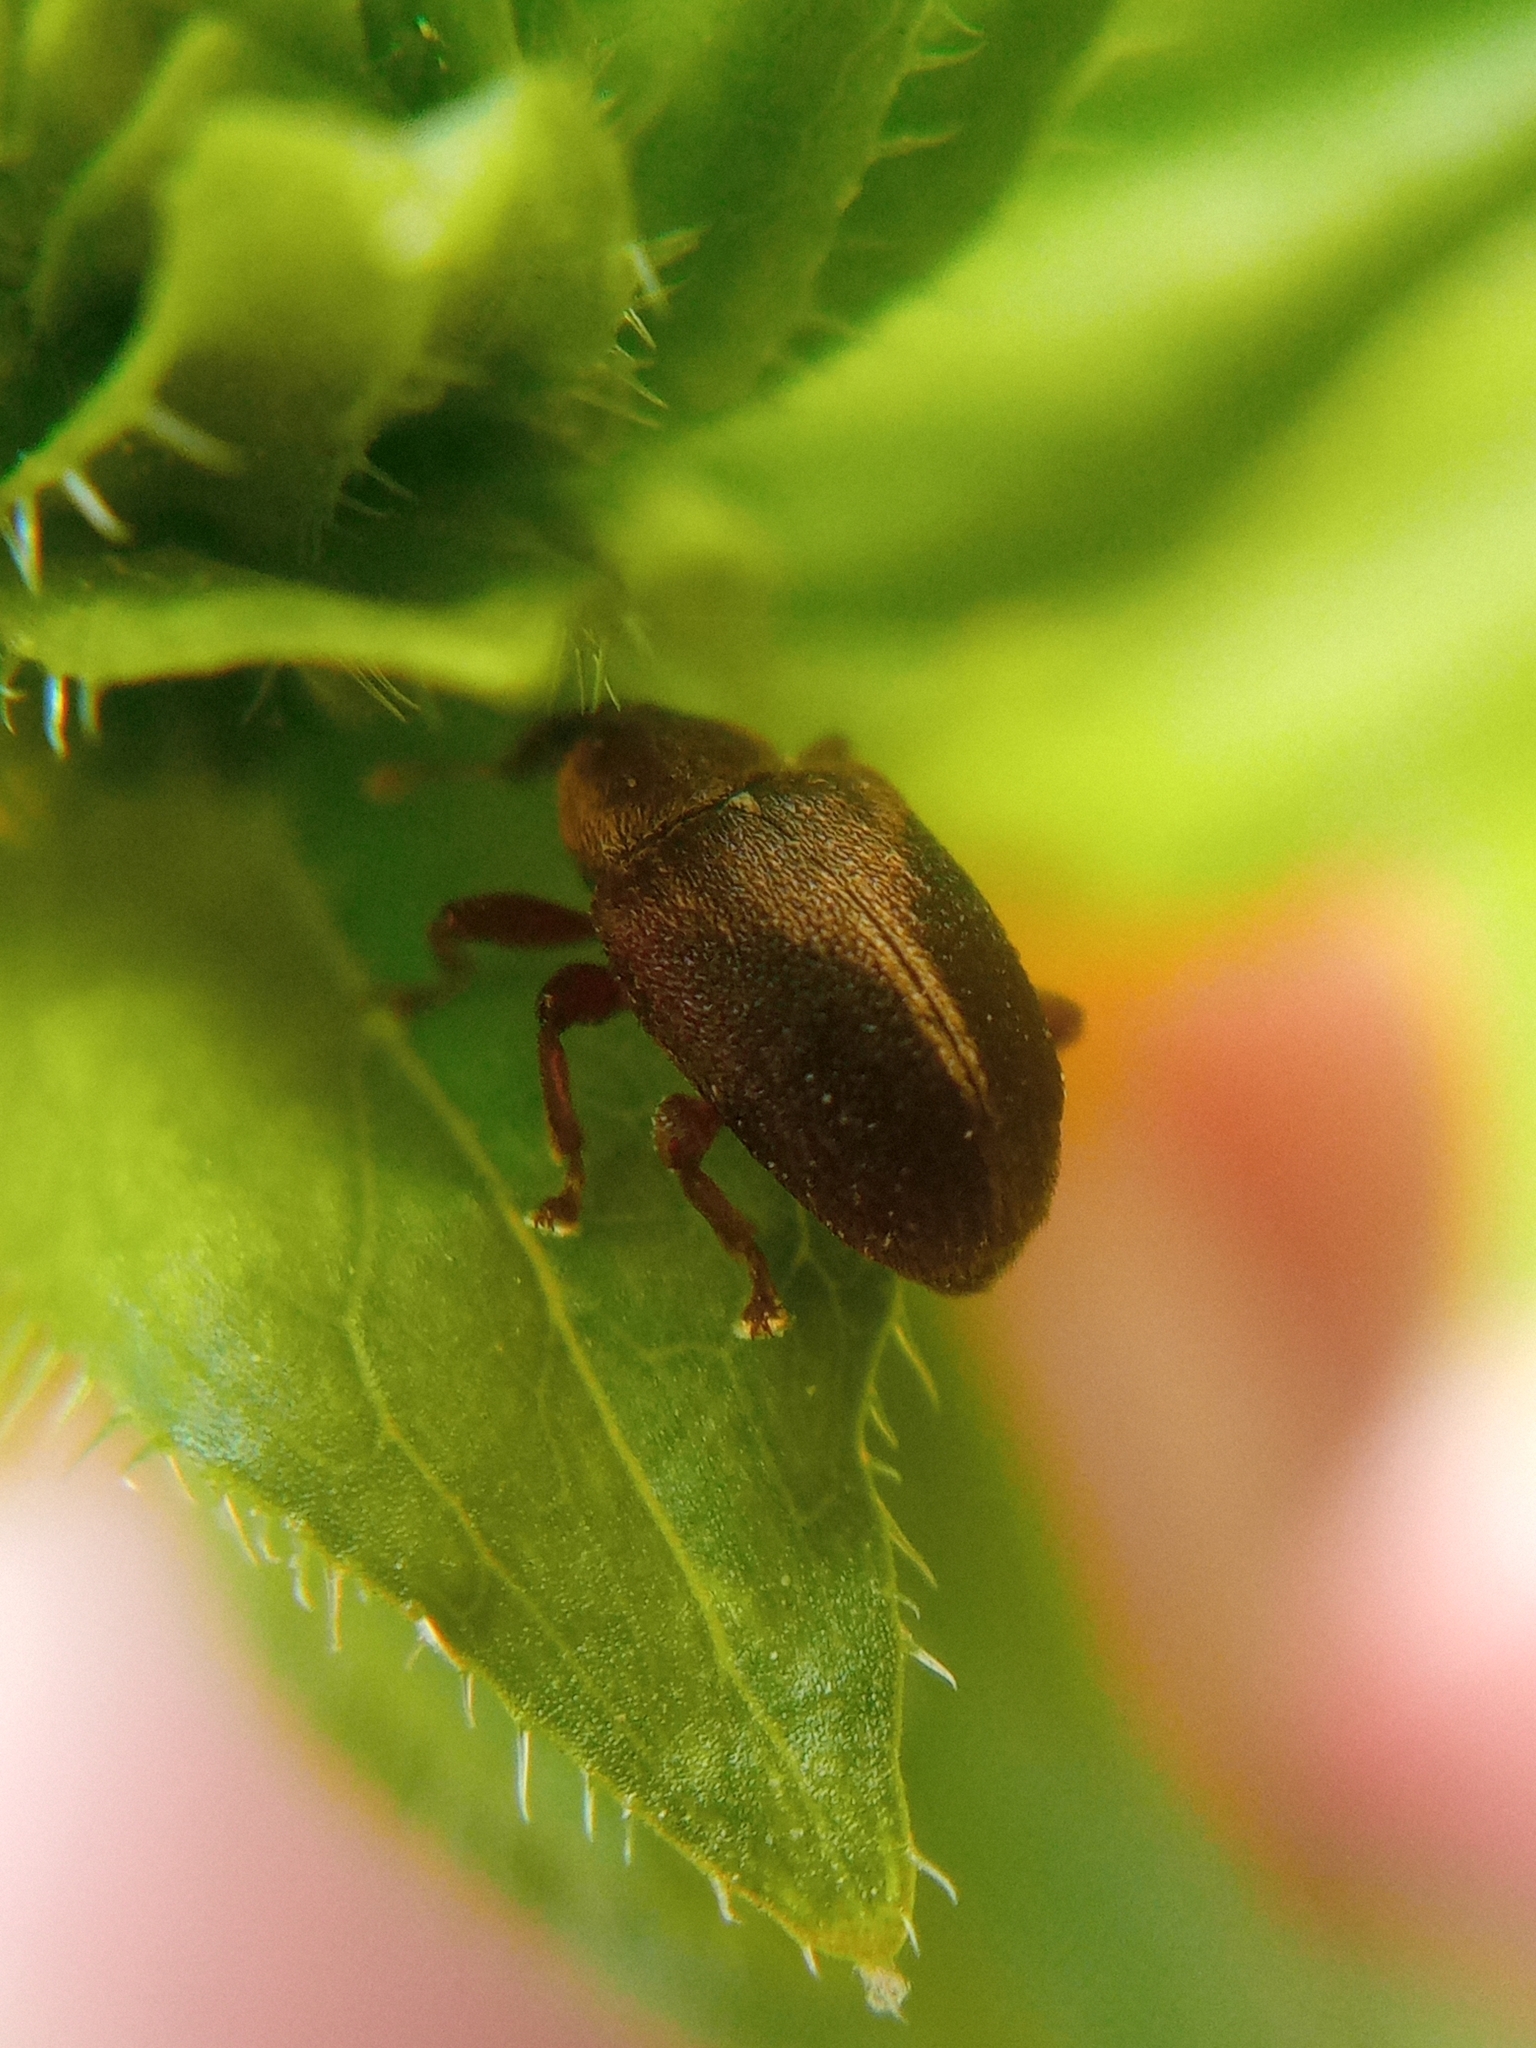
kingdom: Animalia
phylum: Arthropoda
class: Insecta
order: Coleoptera
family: Curculionidae
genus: Lignyodes
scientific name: Lignyodes enucleator
